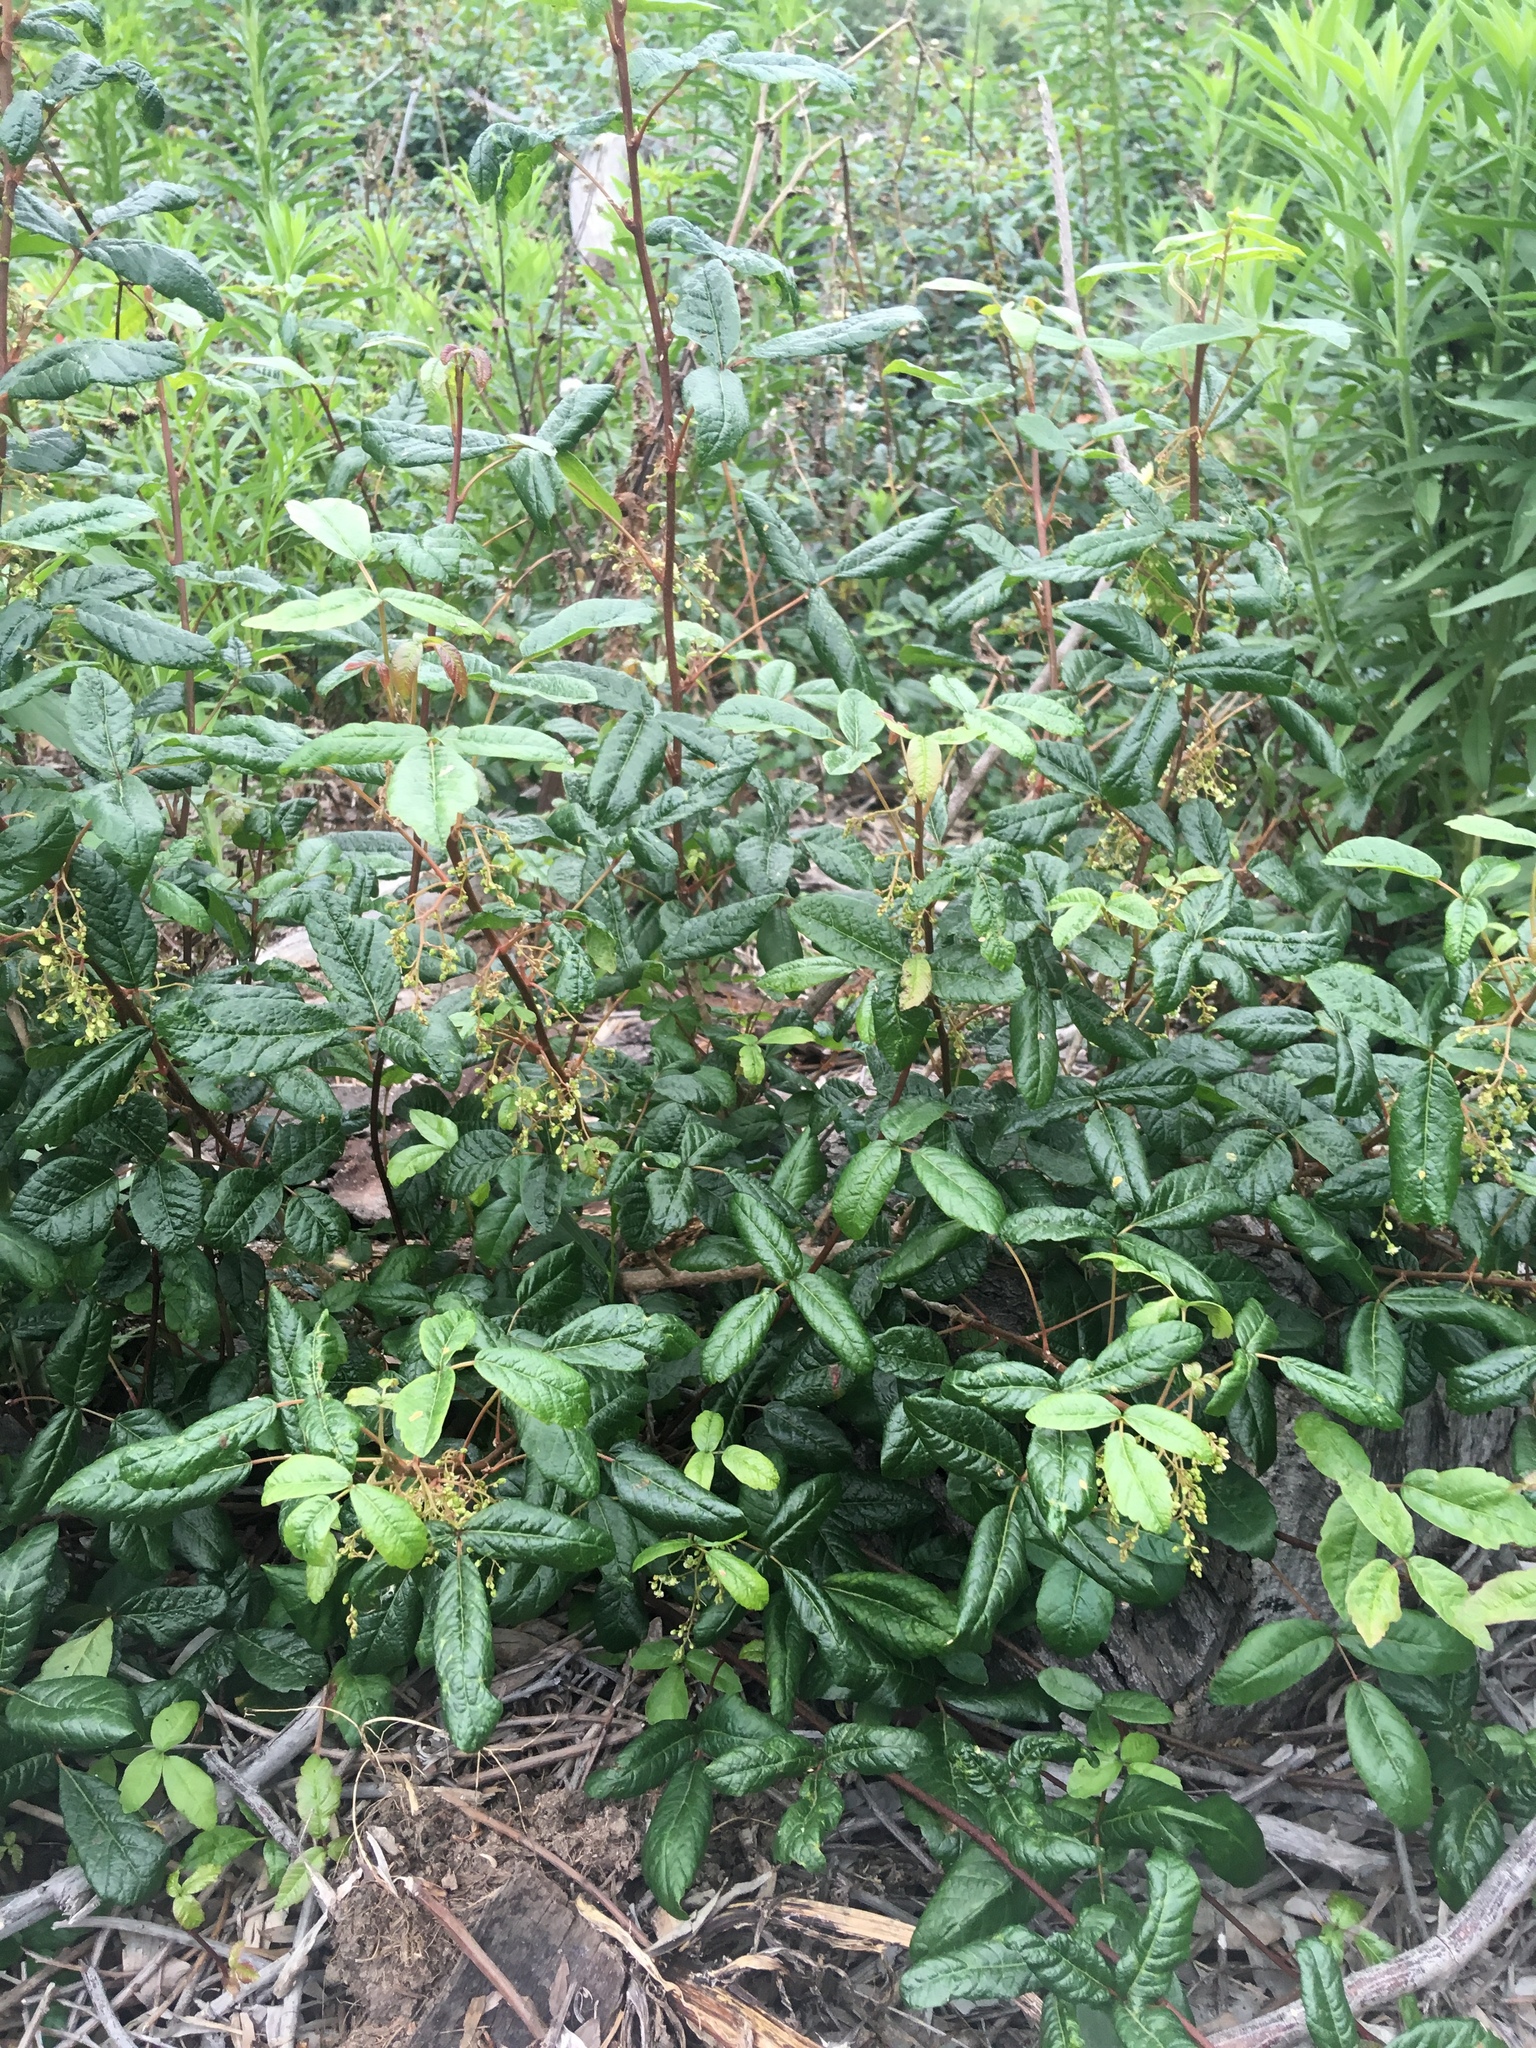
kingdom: Plantae
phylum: Tracheophyta
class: Magnoliopsida
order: Sapindales
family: Anacardiaceae
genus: Toxicodendron
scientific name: Toxicodendron diversilobum
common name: Pacific poison-oak
